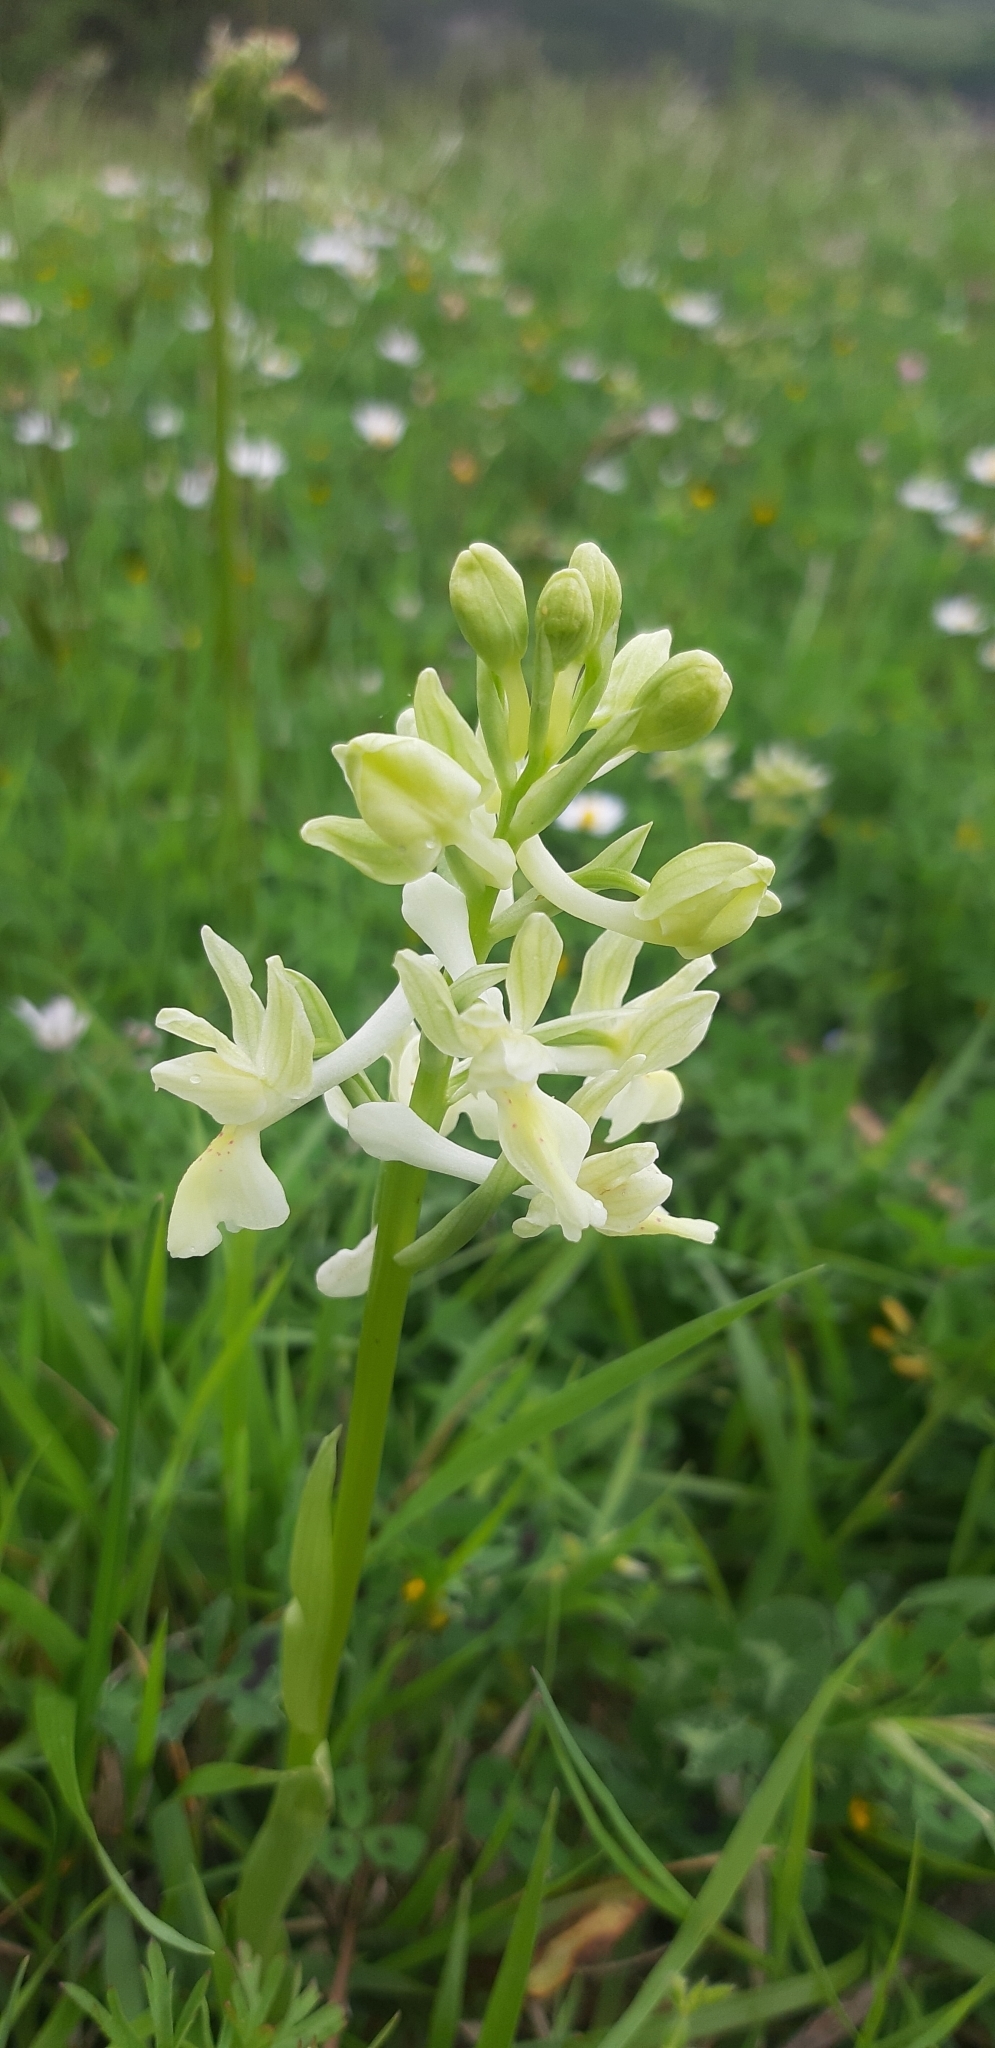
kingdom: Plantae
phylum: Tracheophyta
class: Liliopsida
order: Asparagales
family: Orchidaceae
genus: Orchis
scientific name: Orchis provincialis
